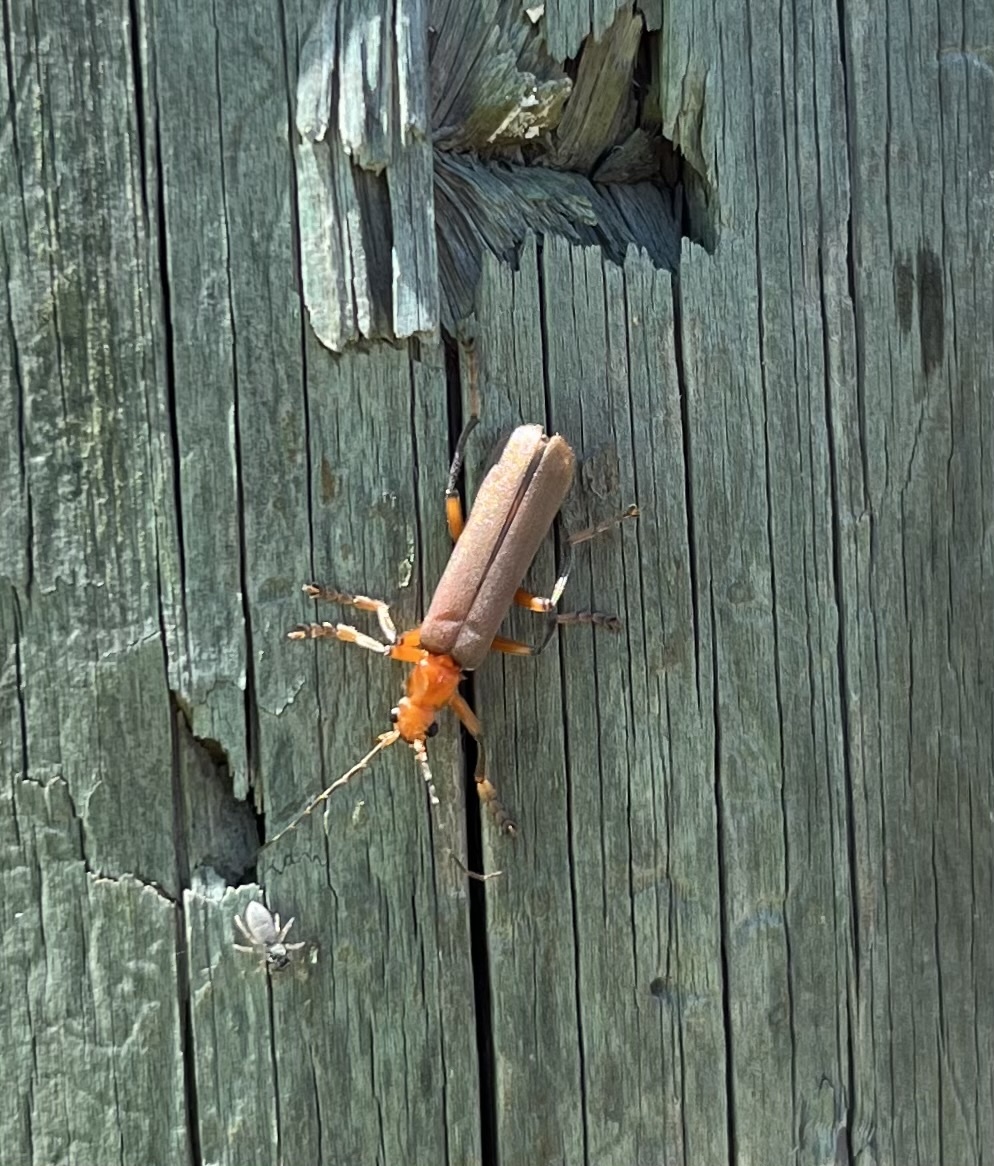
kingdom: Animalia
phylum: Arthropoda
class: Insecta
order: Coleoptera
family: Cantharidae
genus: Pacificanthia
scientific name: Pacificanthia consors
